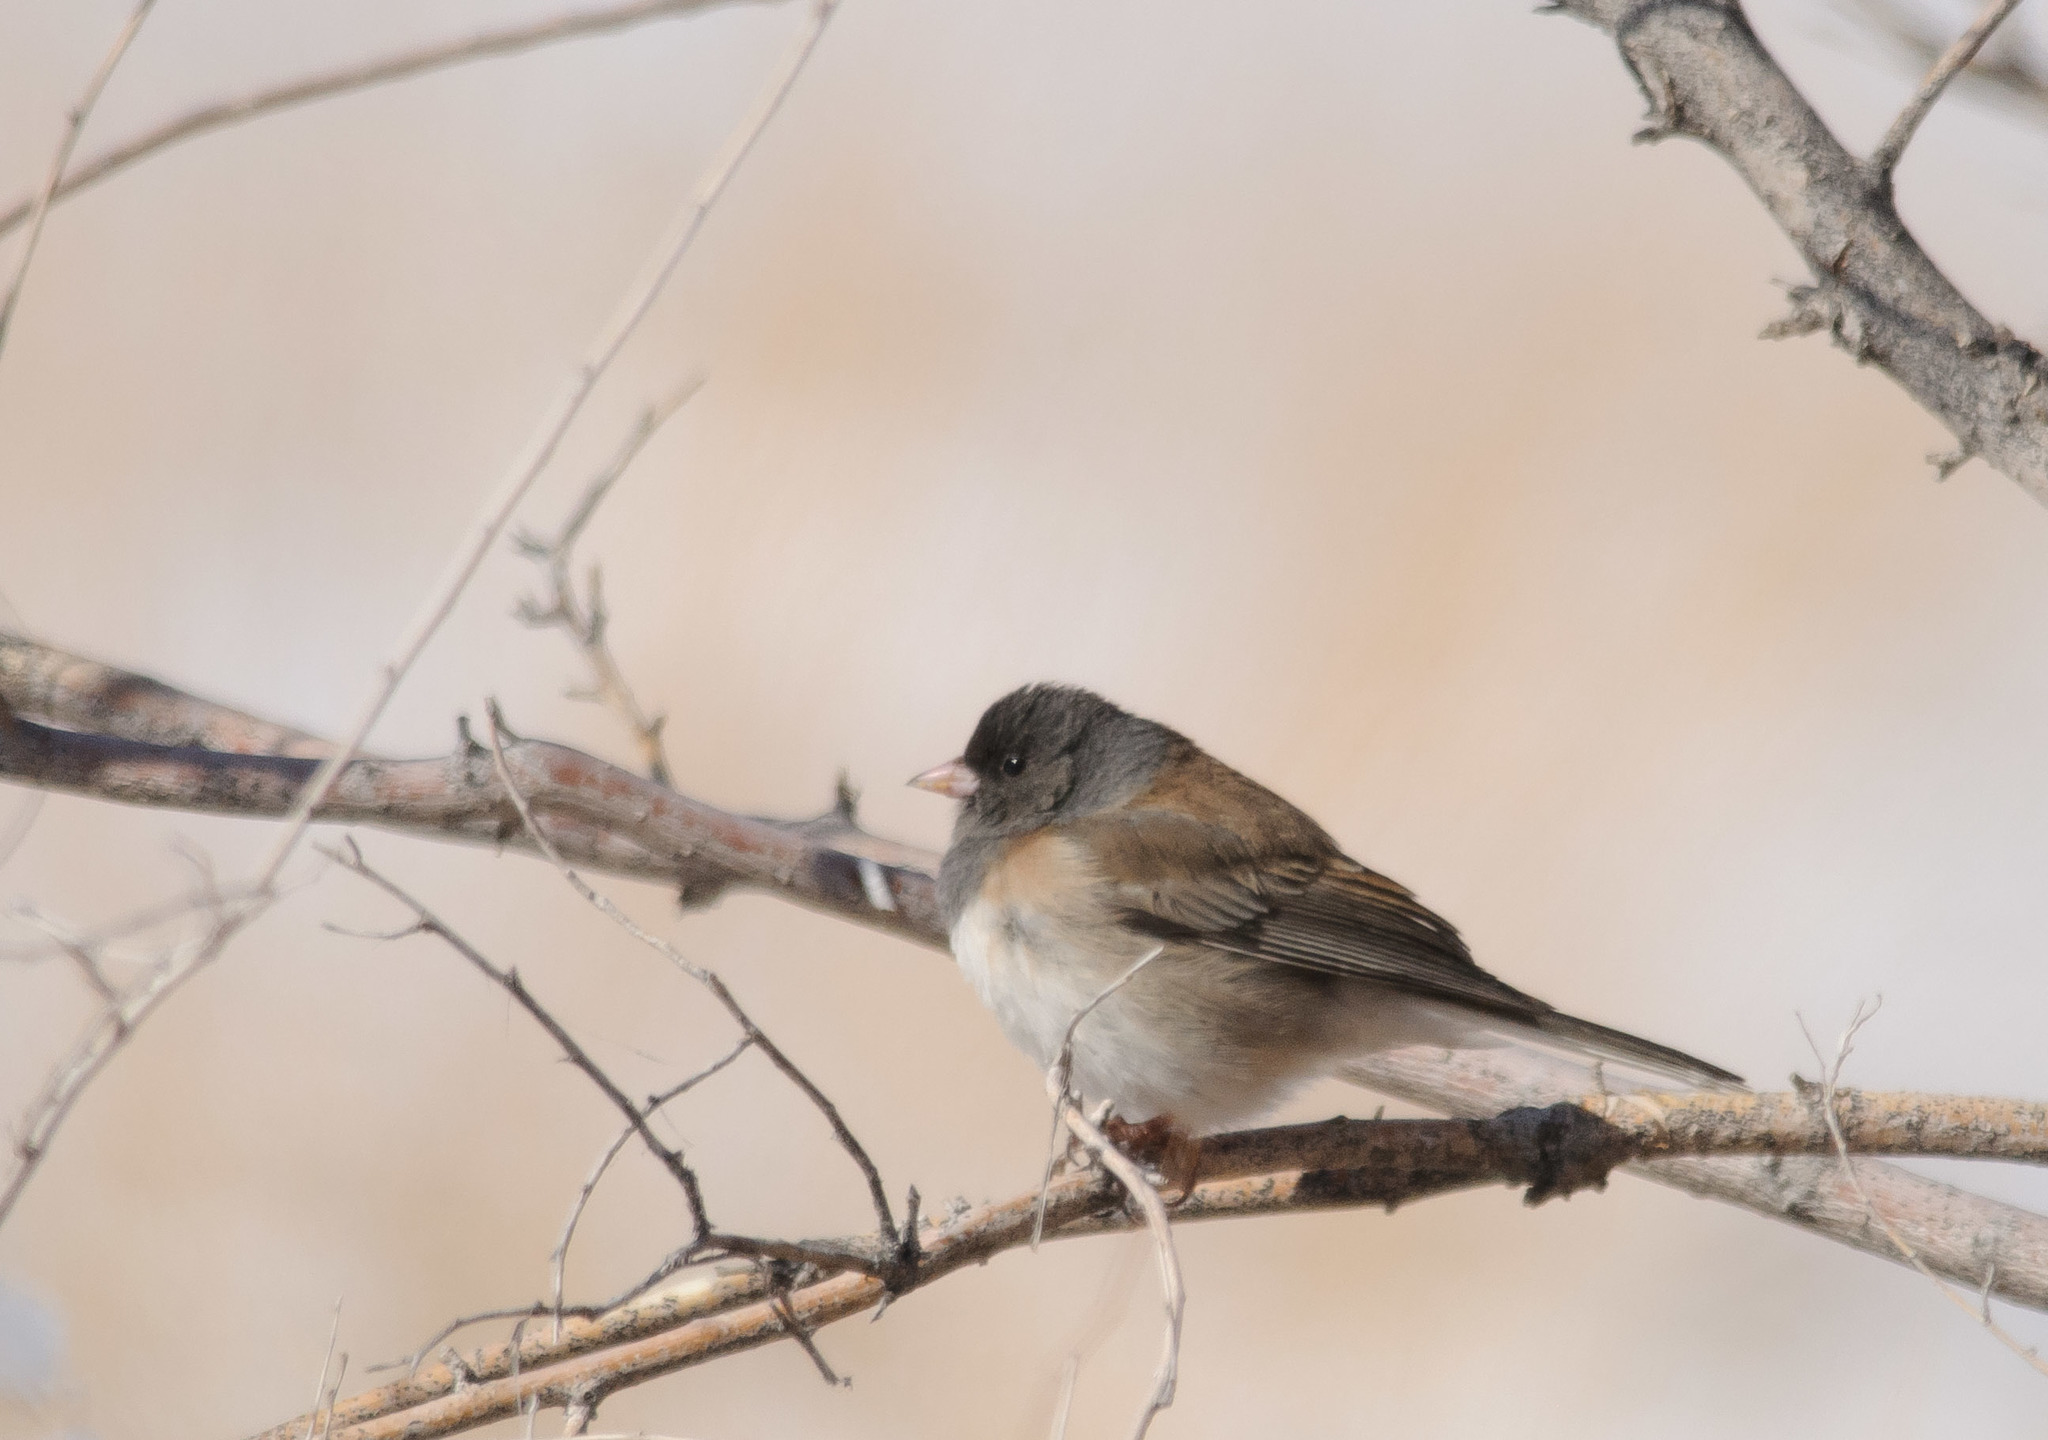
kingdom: Animalia
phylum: Chordata
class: Aves
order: Passeriformes
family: Passerellidae
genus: Junco
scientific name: Junco hyemalis
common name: Dark-eyed junco
